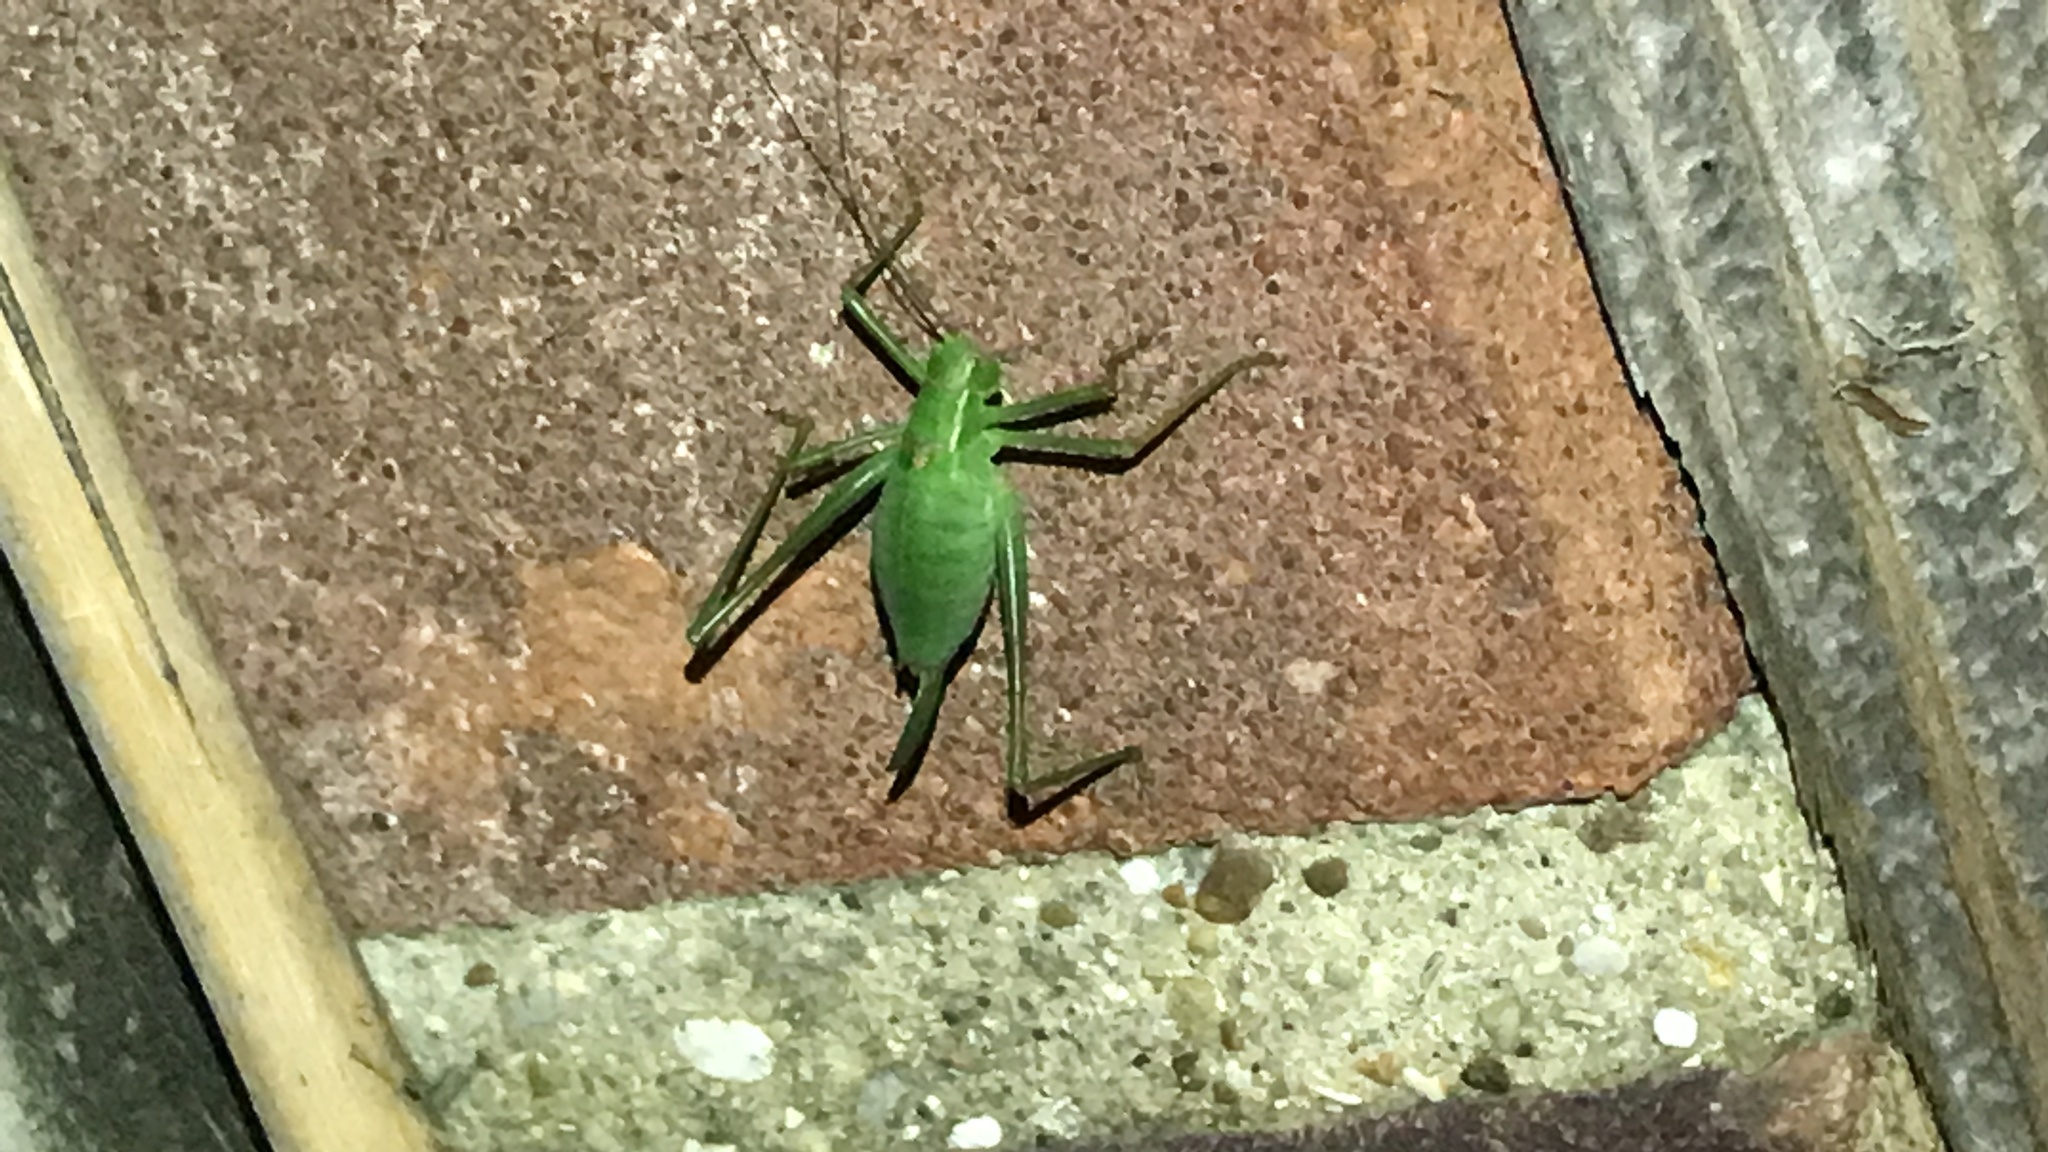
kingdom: Animalia
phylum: Arthropoda
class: Insecta
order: Orthoptera
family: Tettigoniidae
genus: Leptophyes
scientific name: Leptophyes punctatissima
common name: Speckled bush-cricket
